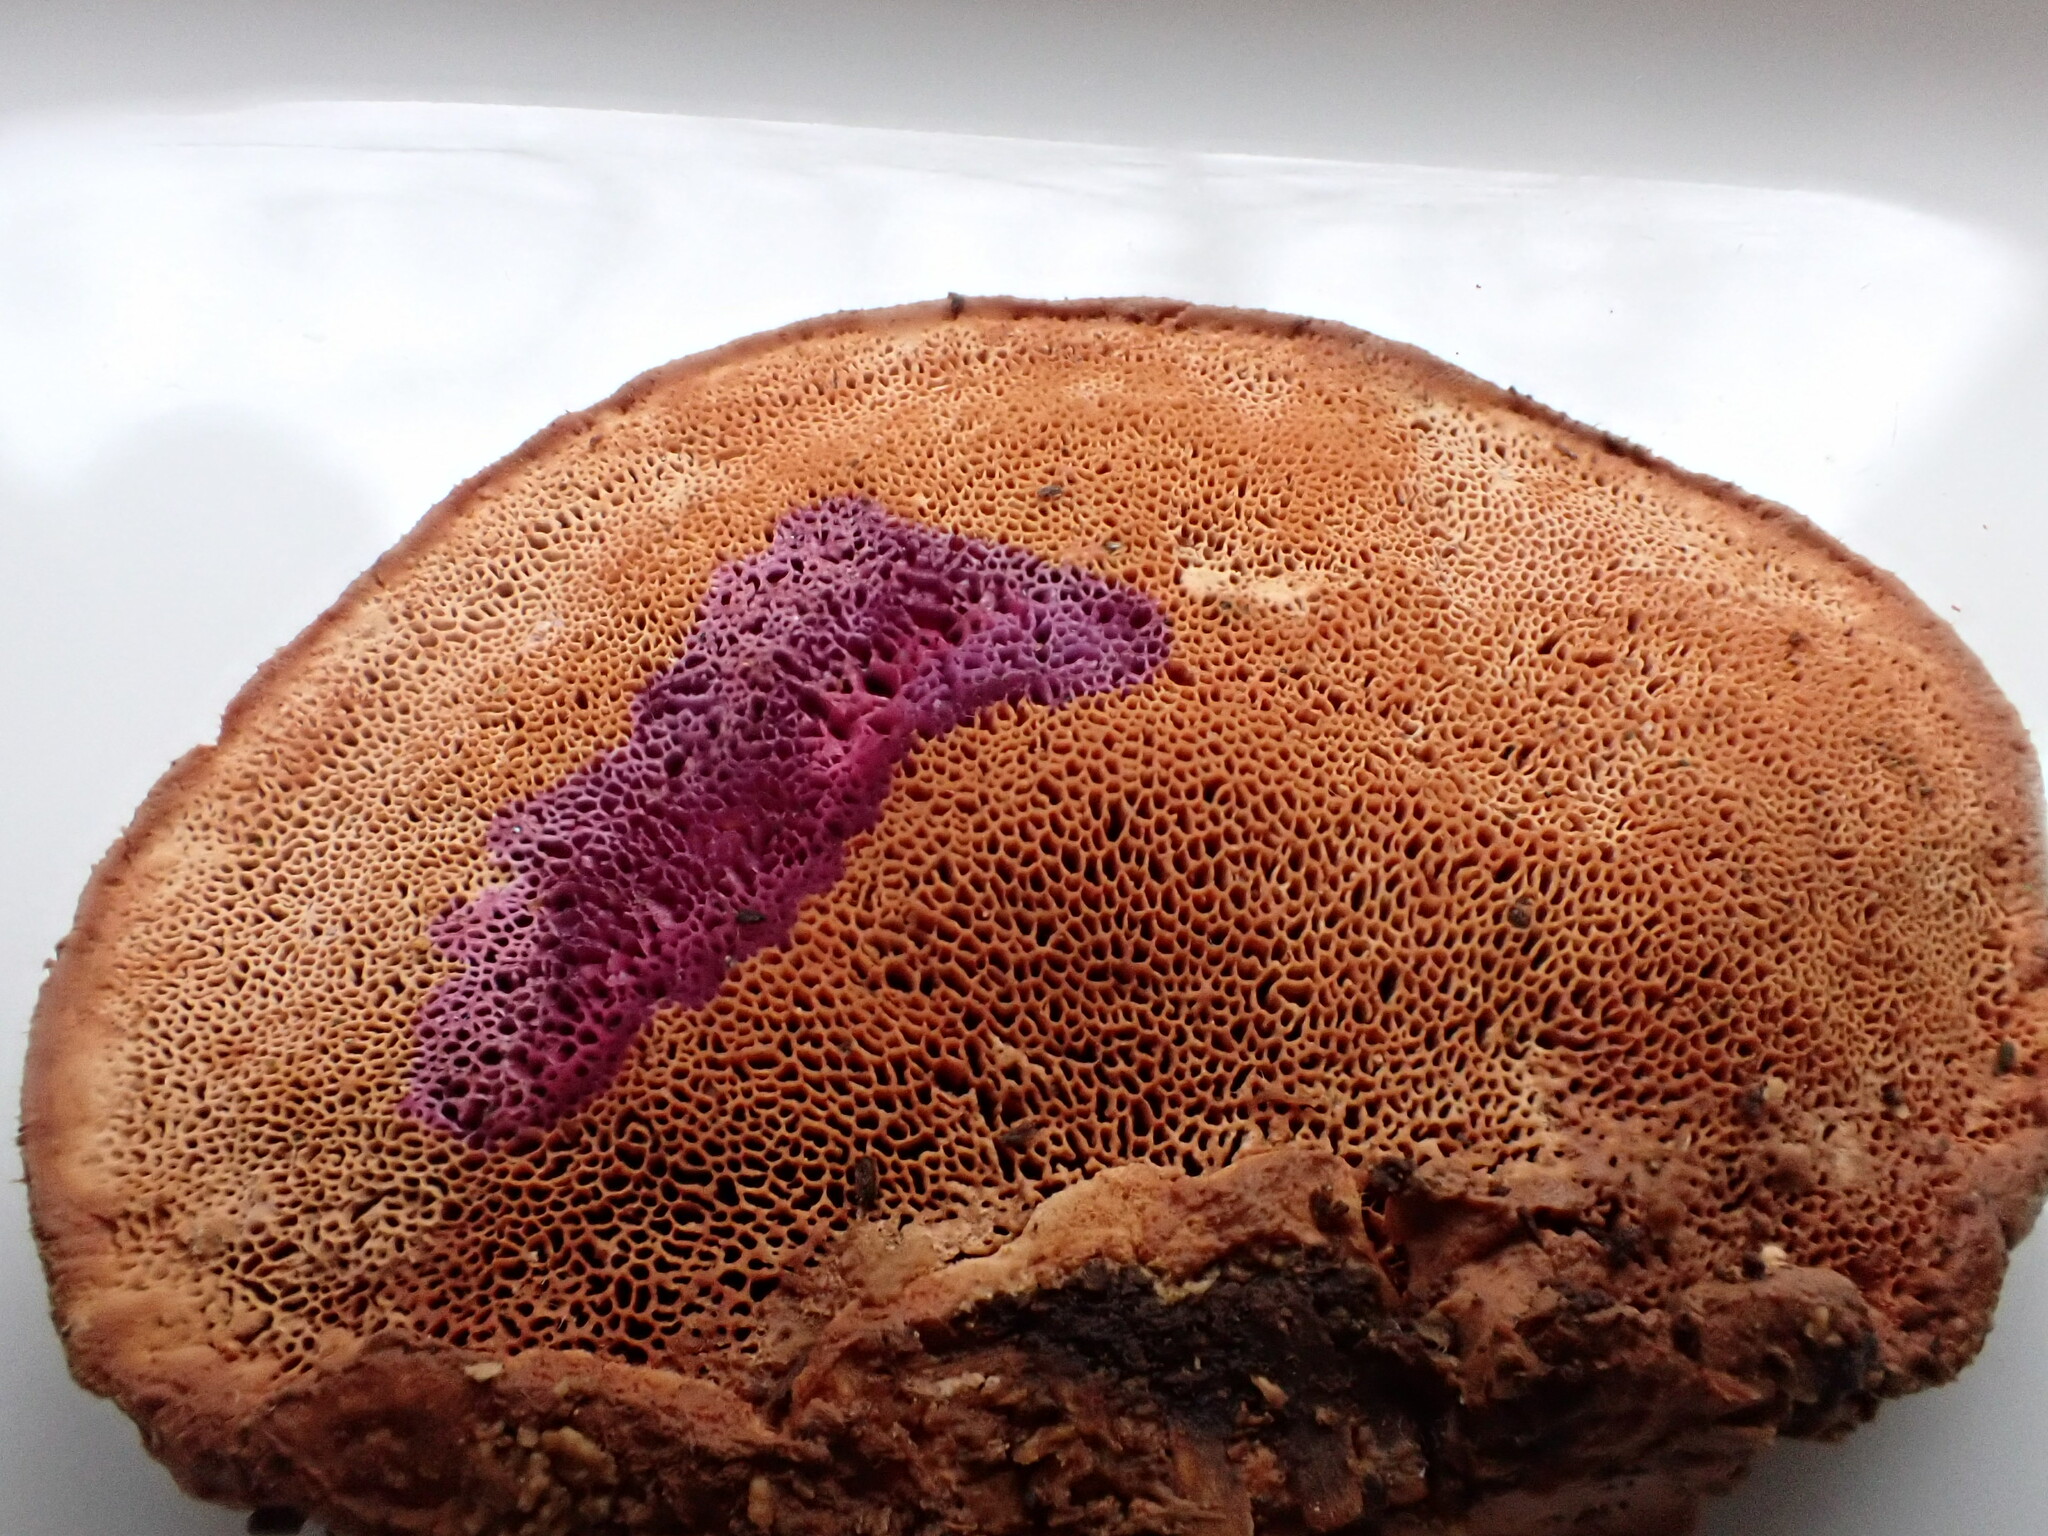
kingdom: Fungi
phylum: Basidiomycota
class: Agaricomycetes
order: Polyporales
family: Phanerochaetaceae
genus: Hapalopilus
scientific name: Hapalopilus rutilans
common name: Tender nesting polypore
